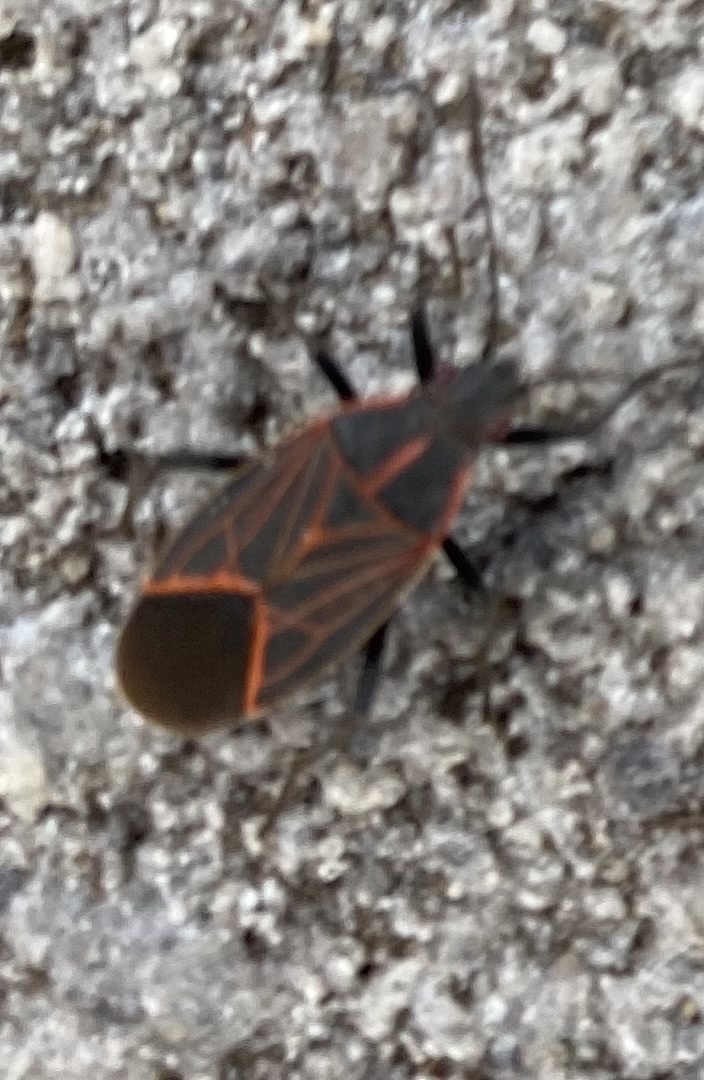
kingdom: Animalia
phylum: Arthropoda
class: Insecta
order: Hemiptera
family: Rhopalidae
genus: Boisea
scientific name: Boisea rubrolineata
